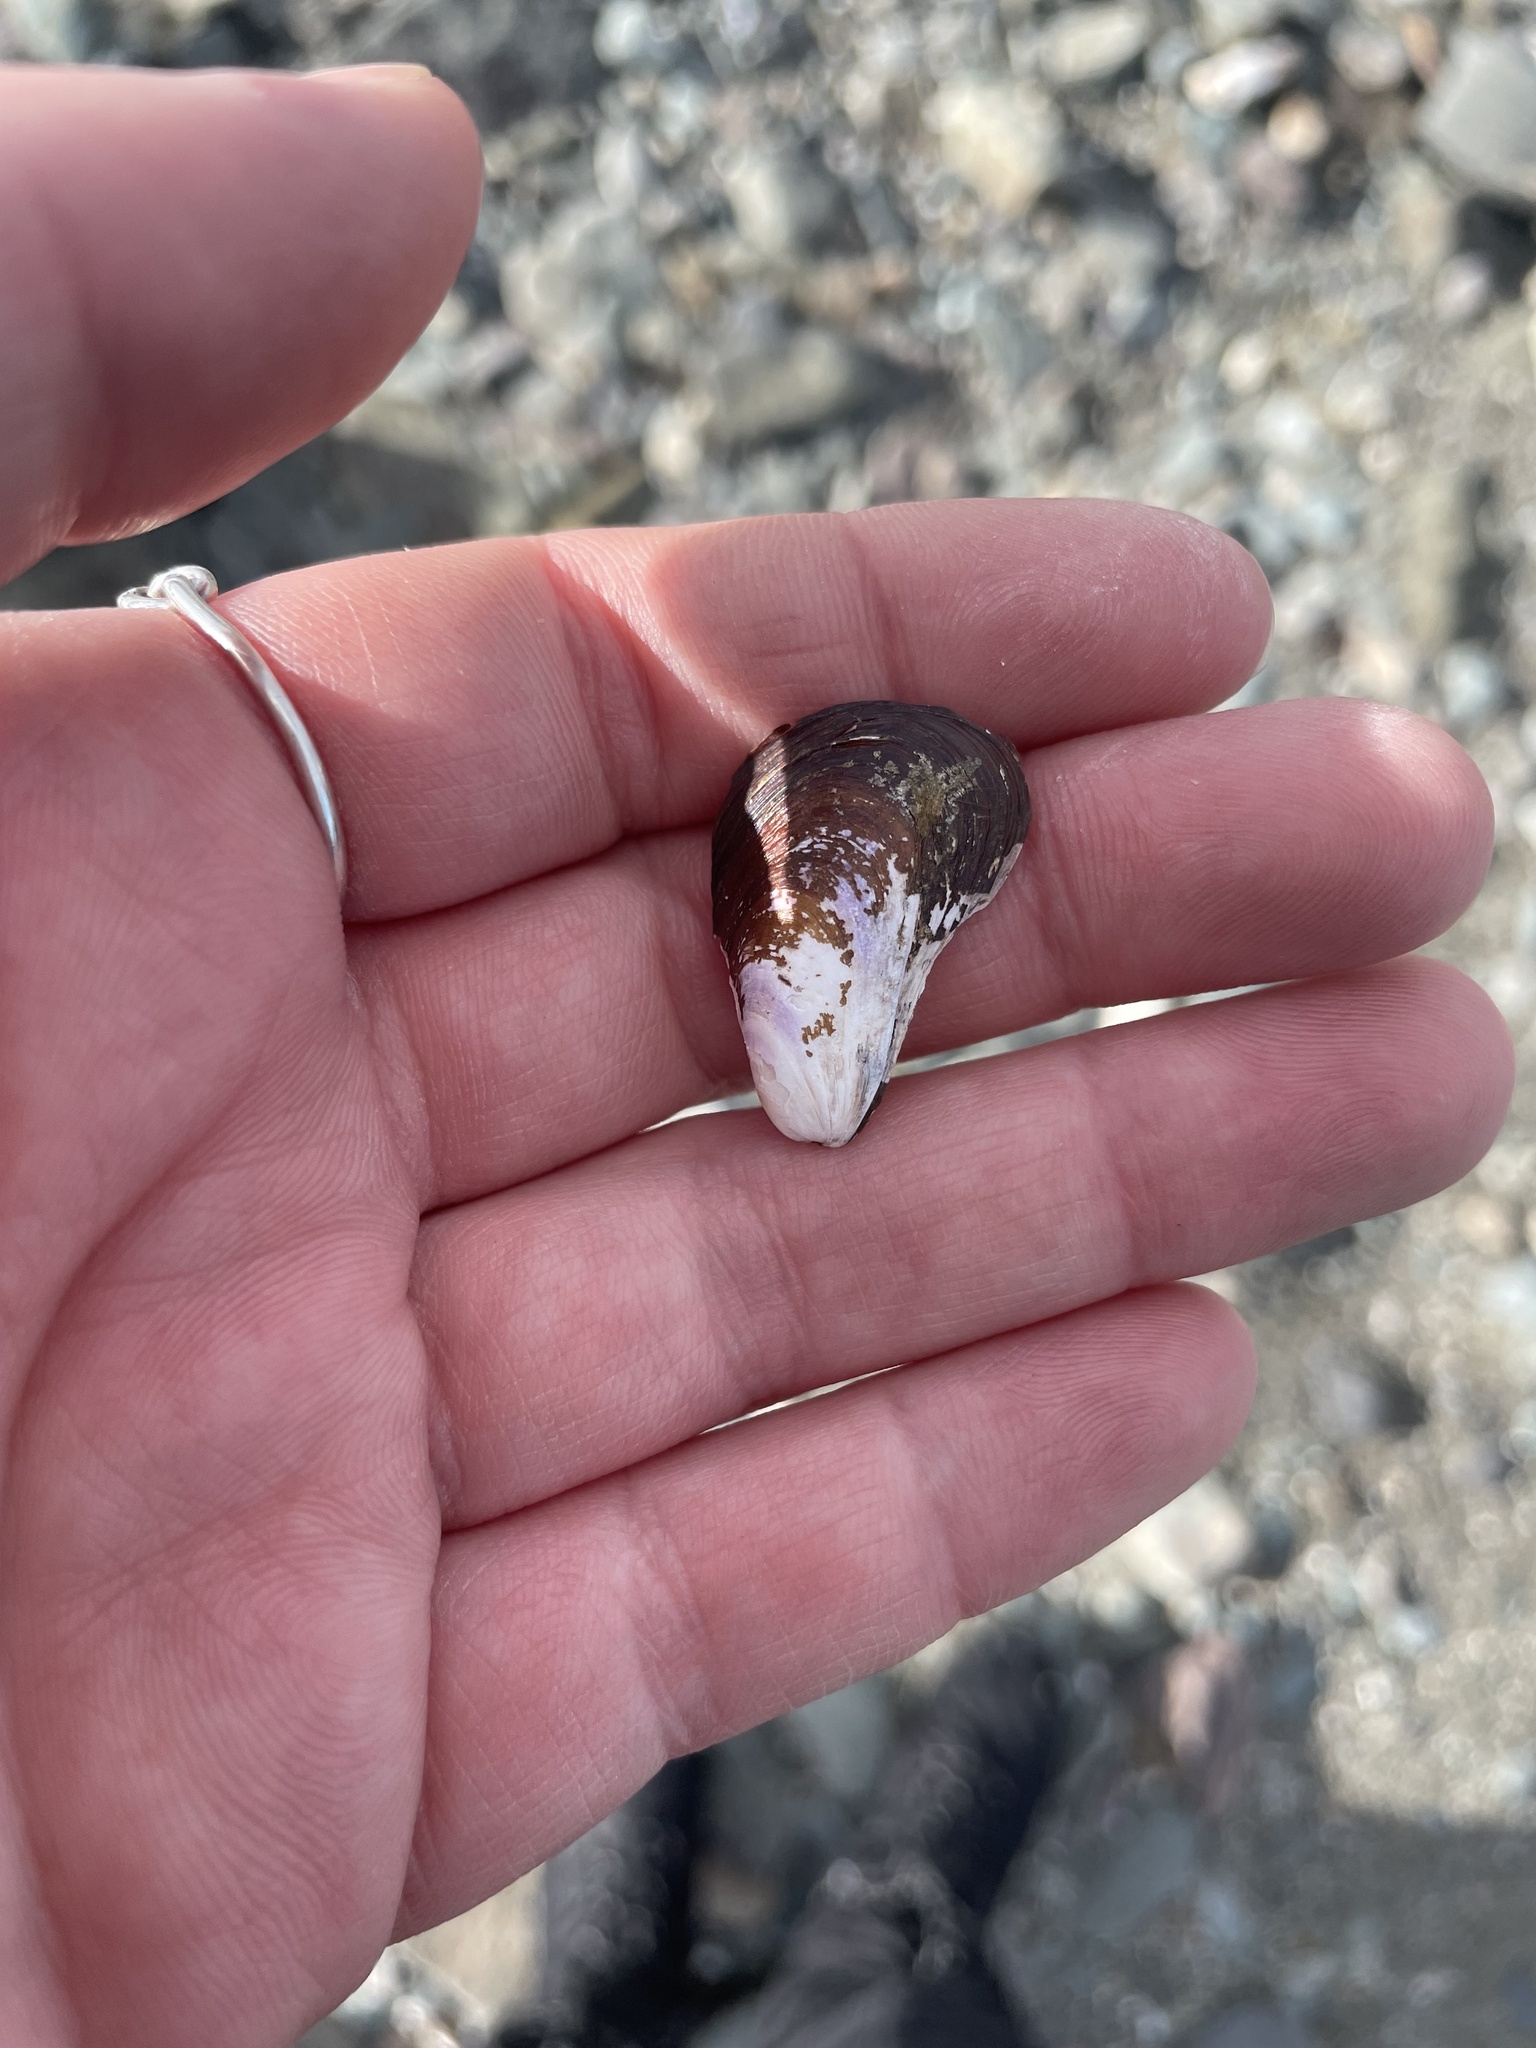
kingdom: Animalia
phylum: Mollusca
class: Bivalvia
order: Mytilida
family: Mytilidae
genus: Modiolus
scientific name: Modiolus modiolus
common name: Horse-mussel
